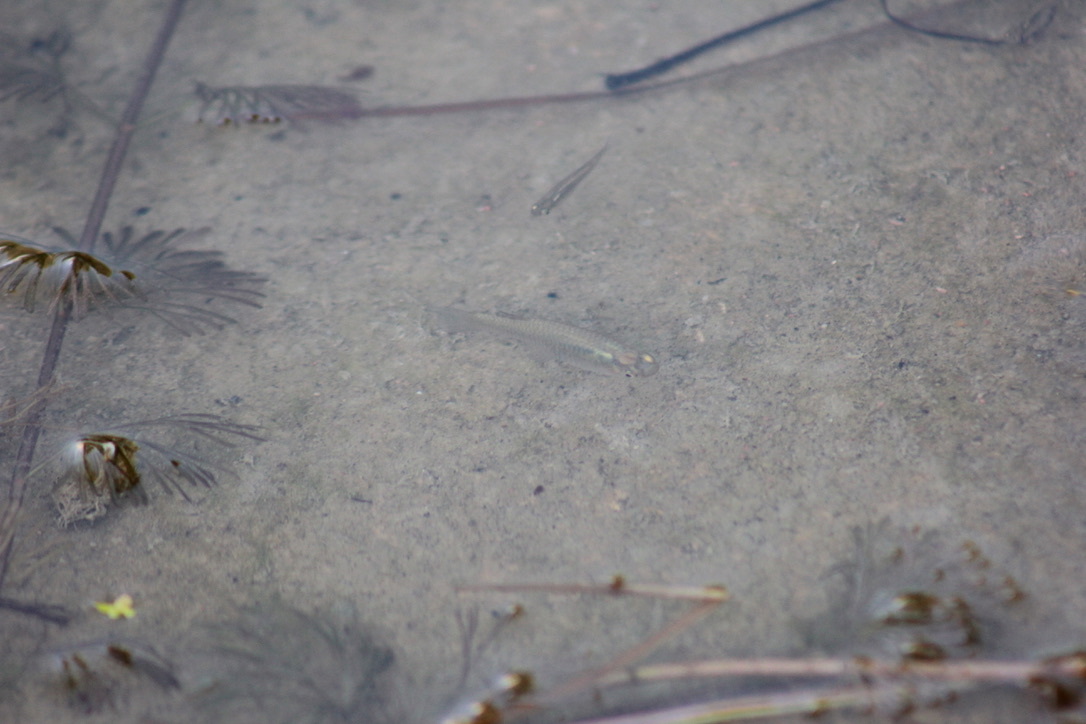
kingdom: Animalia
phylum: Chordata
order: Cyprinodontiformes
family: Poeciliidae
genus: Gambusia
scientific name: Gambusia affinis
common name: Mosquitofish
